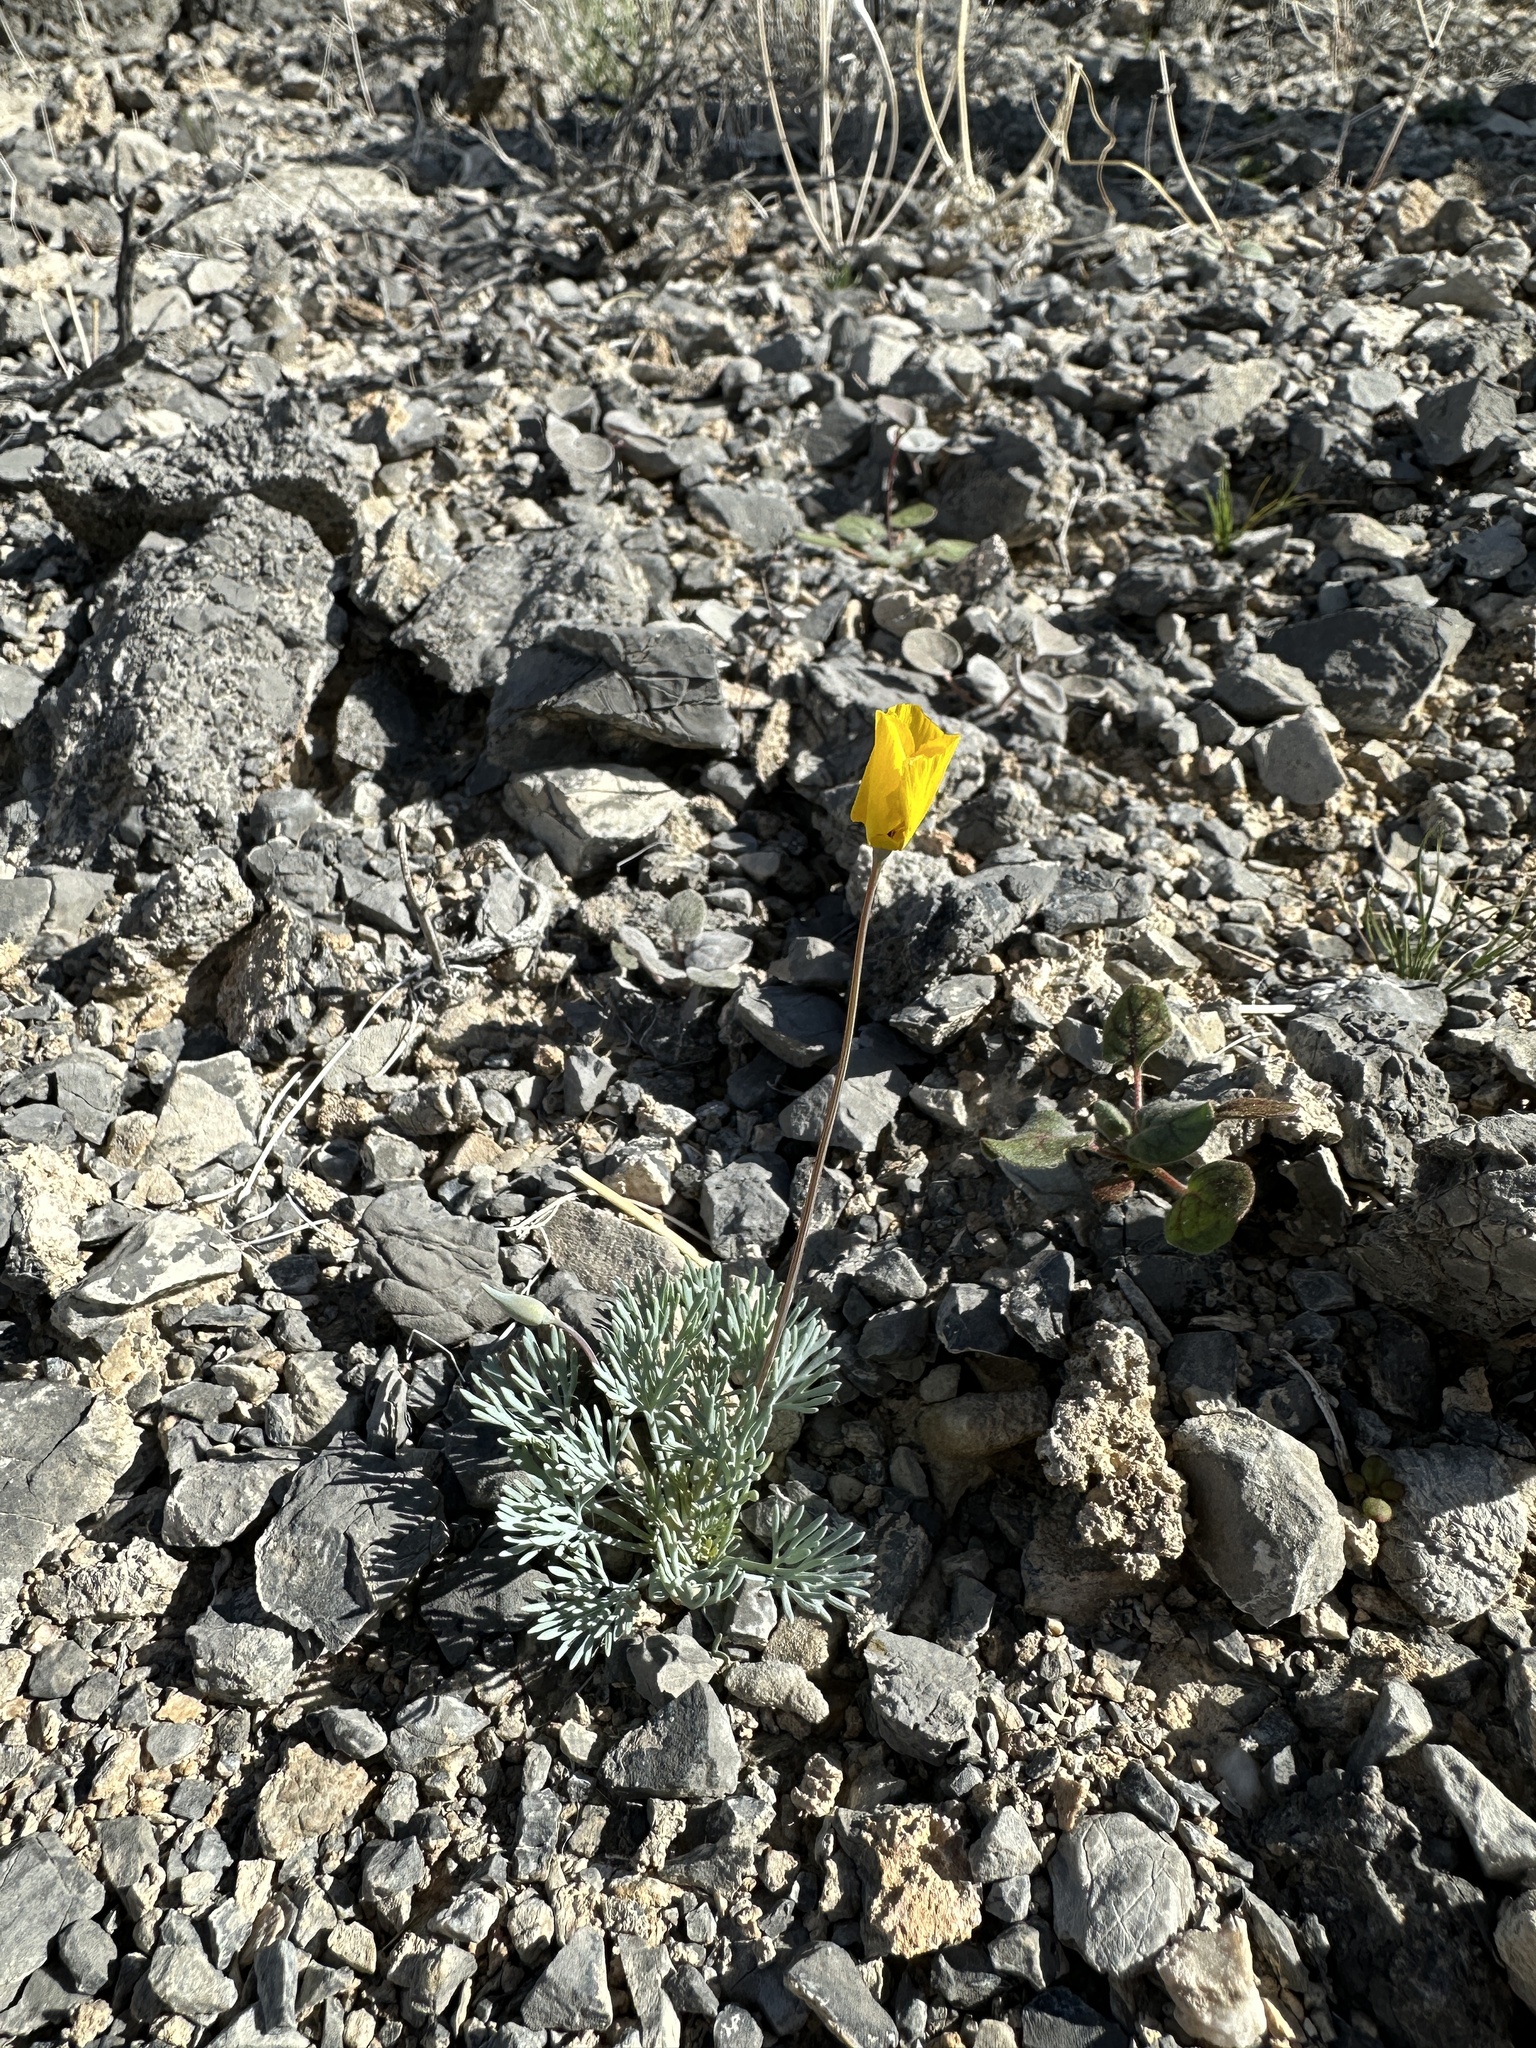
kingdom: Plantae
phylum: Tracheophyta
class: Magnoliopsida
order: Ranunculales
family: Papaveraceae
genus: Eschscholzia
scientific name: Eschscholzia glyptosperma
